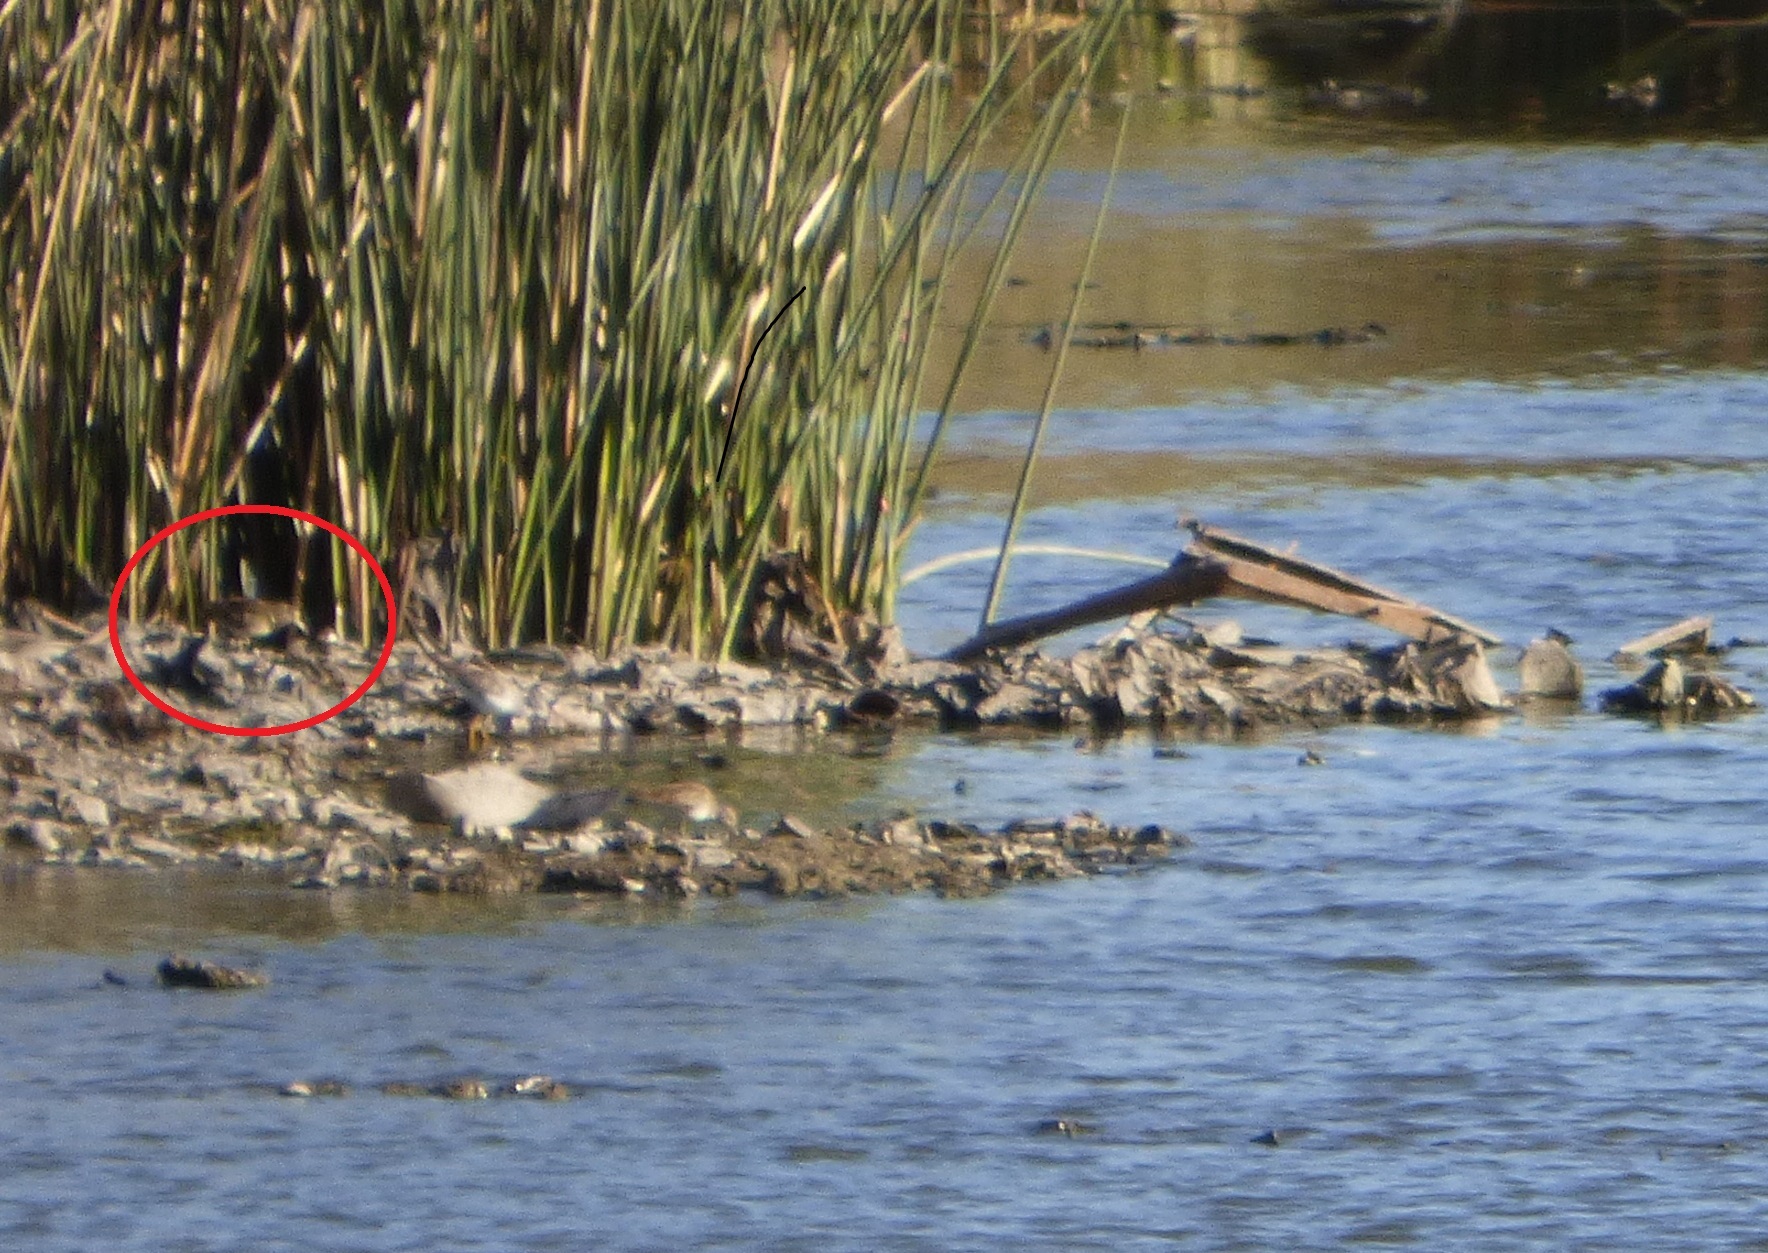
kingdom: Animalia
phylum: Chordata
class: Aves
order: Charadriiformes
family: Rostratulidae
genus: Nycticryphes
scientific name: Nycticryphes semicollaris
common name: South american painted-snipe
